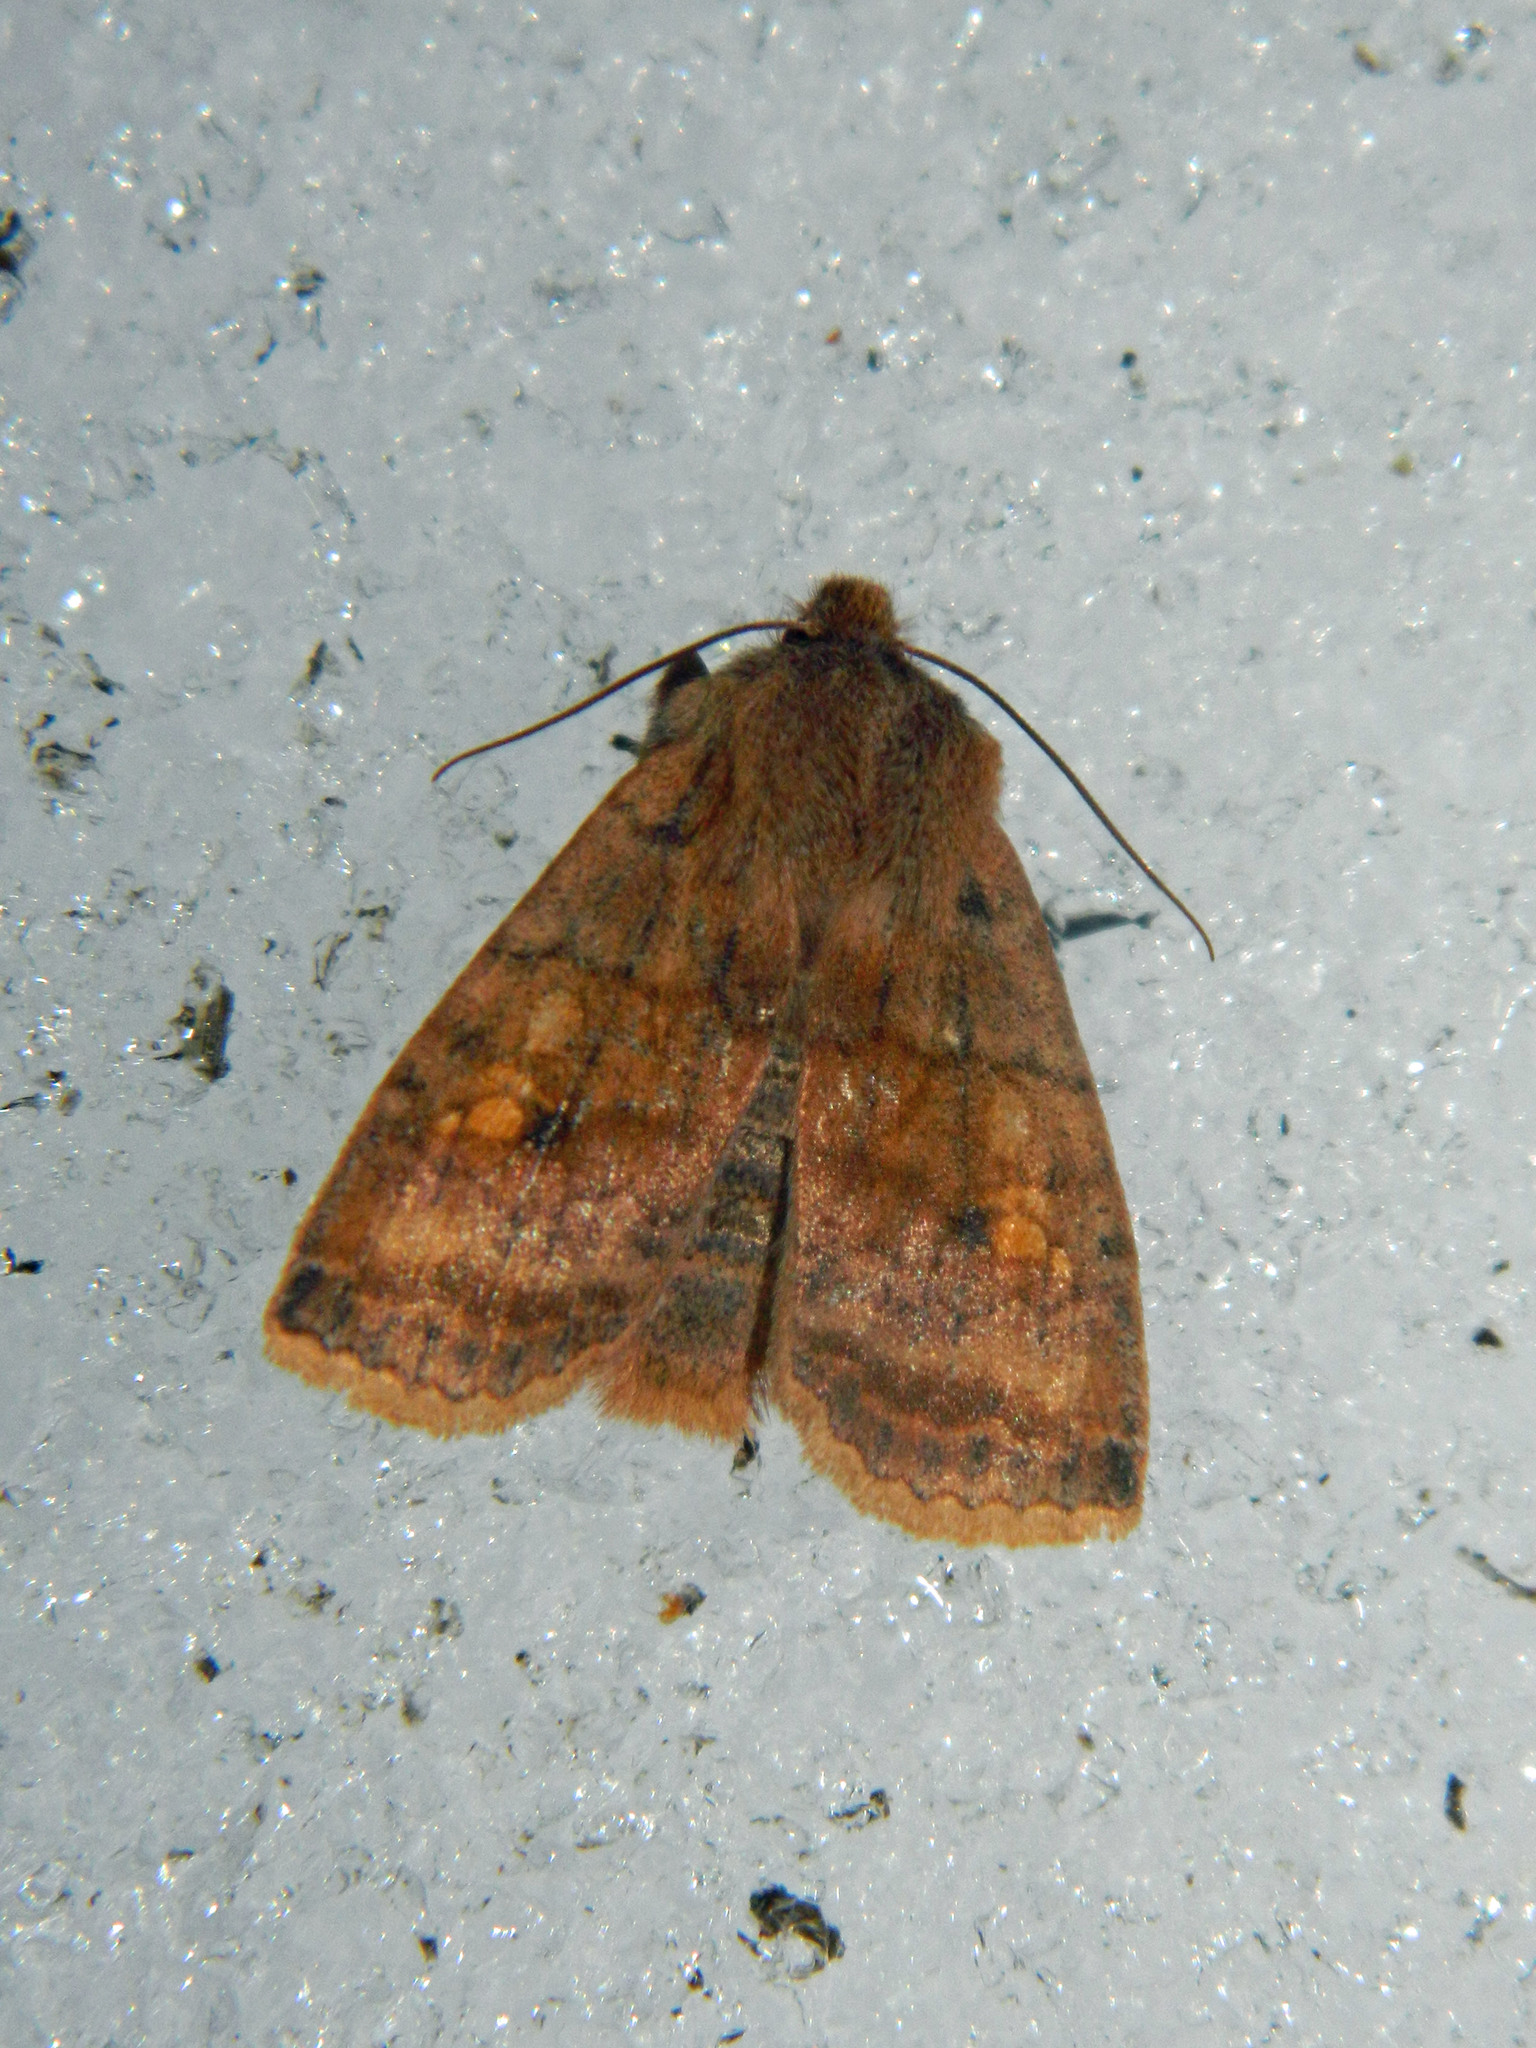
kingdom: Animalia
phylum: Arthropoda
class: Insecta
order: Lepidoptera
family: Noctuidae
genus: Eupsilia
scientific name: Eupsilia tristigmata
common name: Three-spotted sallow
